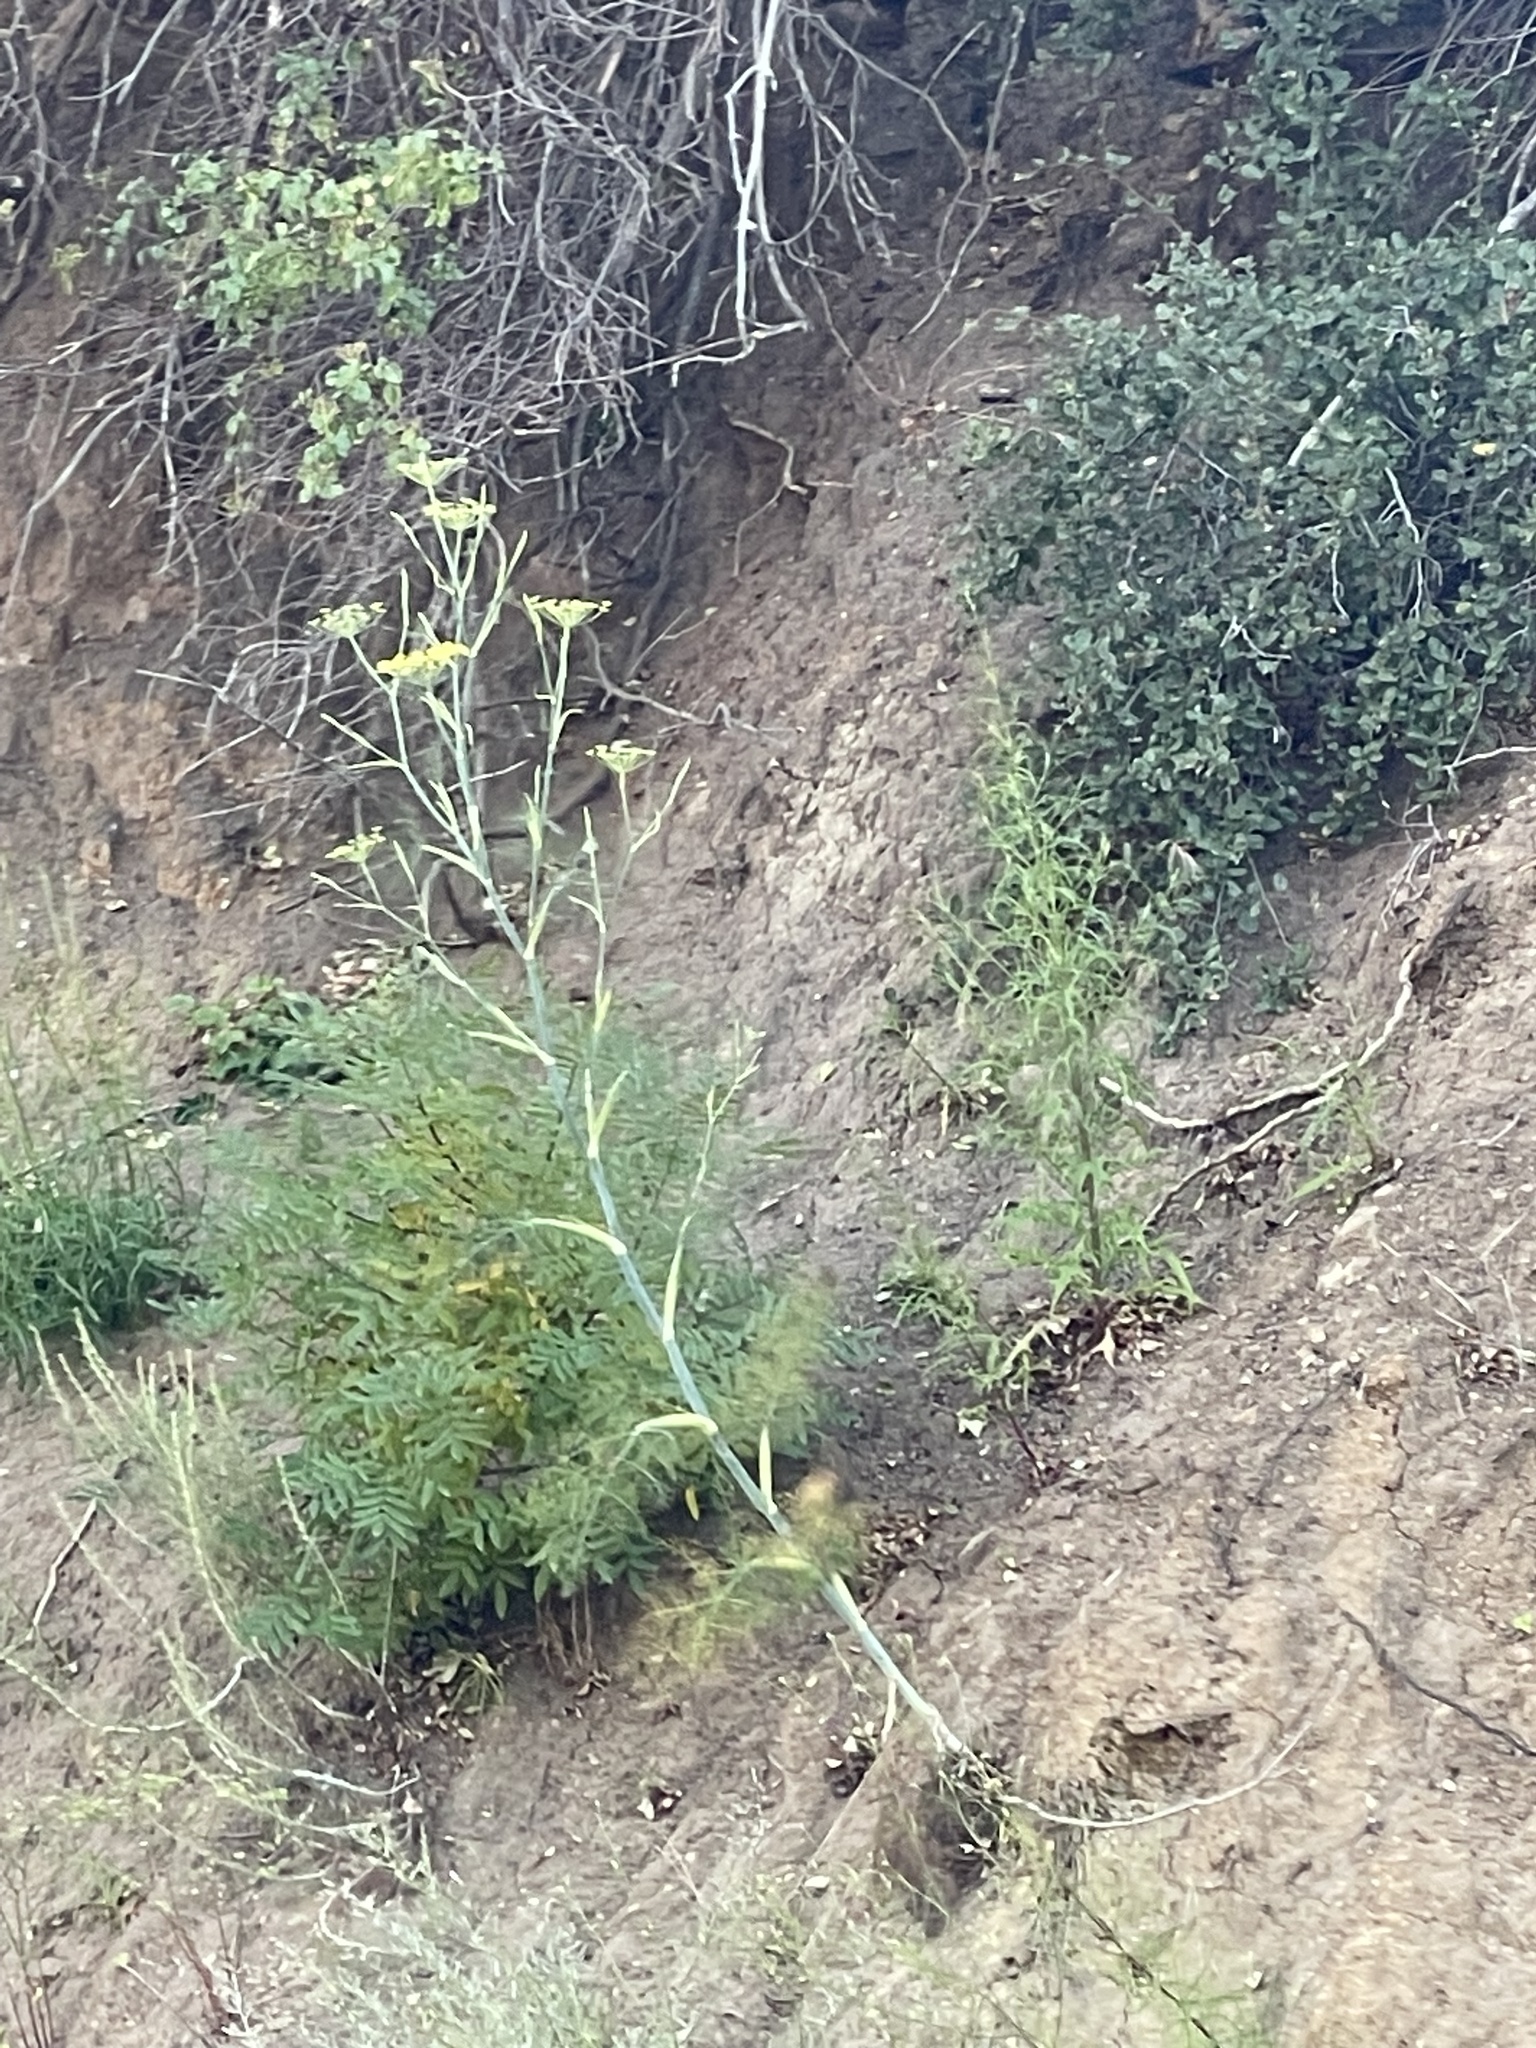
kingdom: Plantae
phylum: Tracheophyta
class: Magnoliopsida
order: Apiales
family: Apiaceae
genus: Foeniculum
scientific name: Foeniculum vulgare
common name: Fennel
